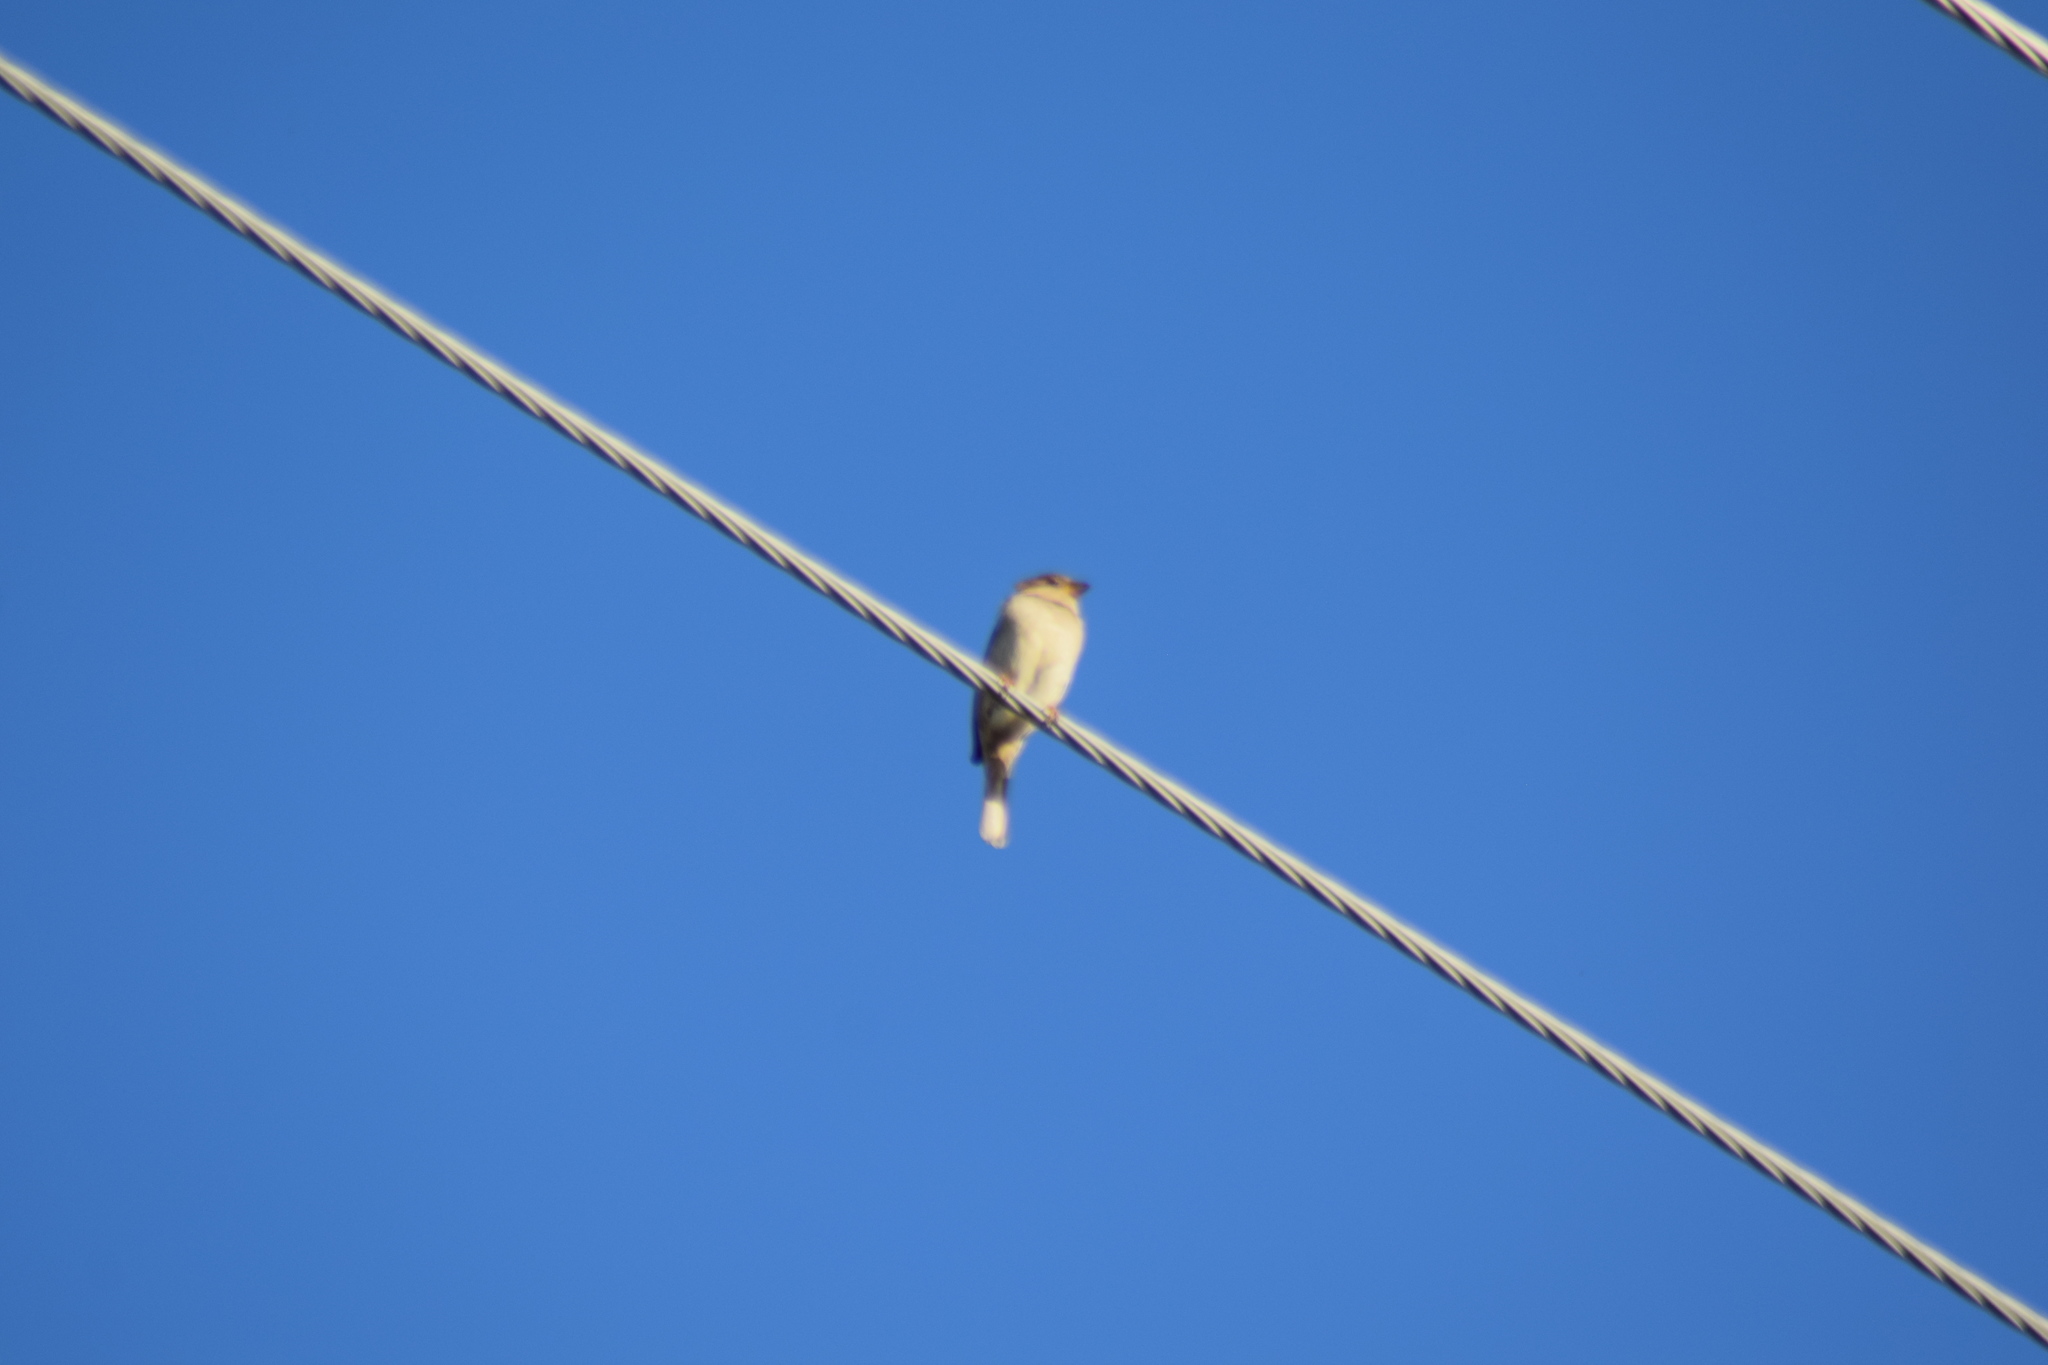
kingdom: Animalia
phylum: Chordata
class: Aves
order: Passeriformes
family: Passeridae
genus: Passer
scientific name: Passer domesticus
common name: House sparrow
